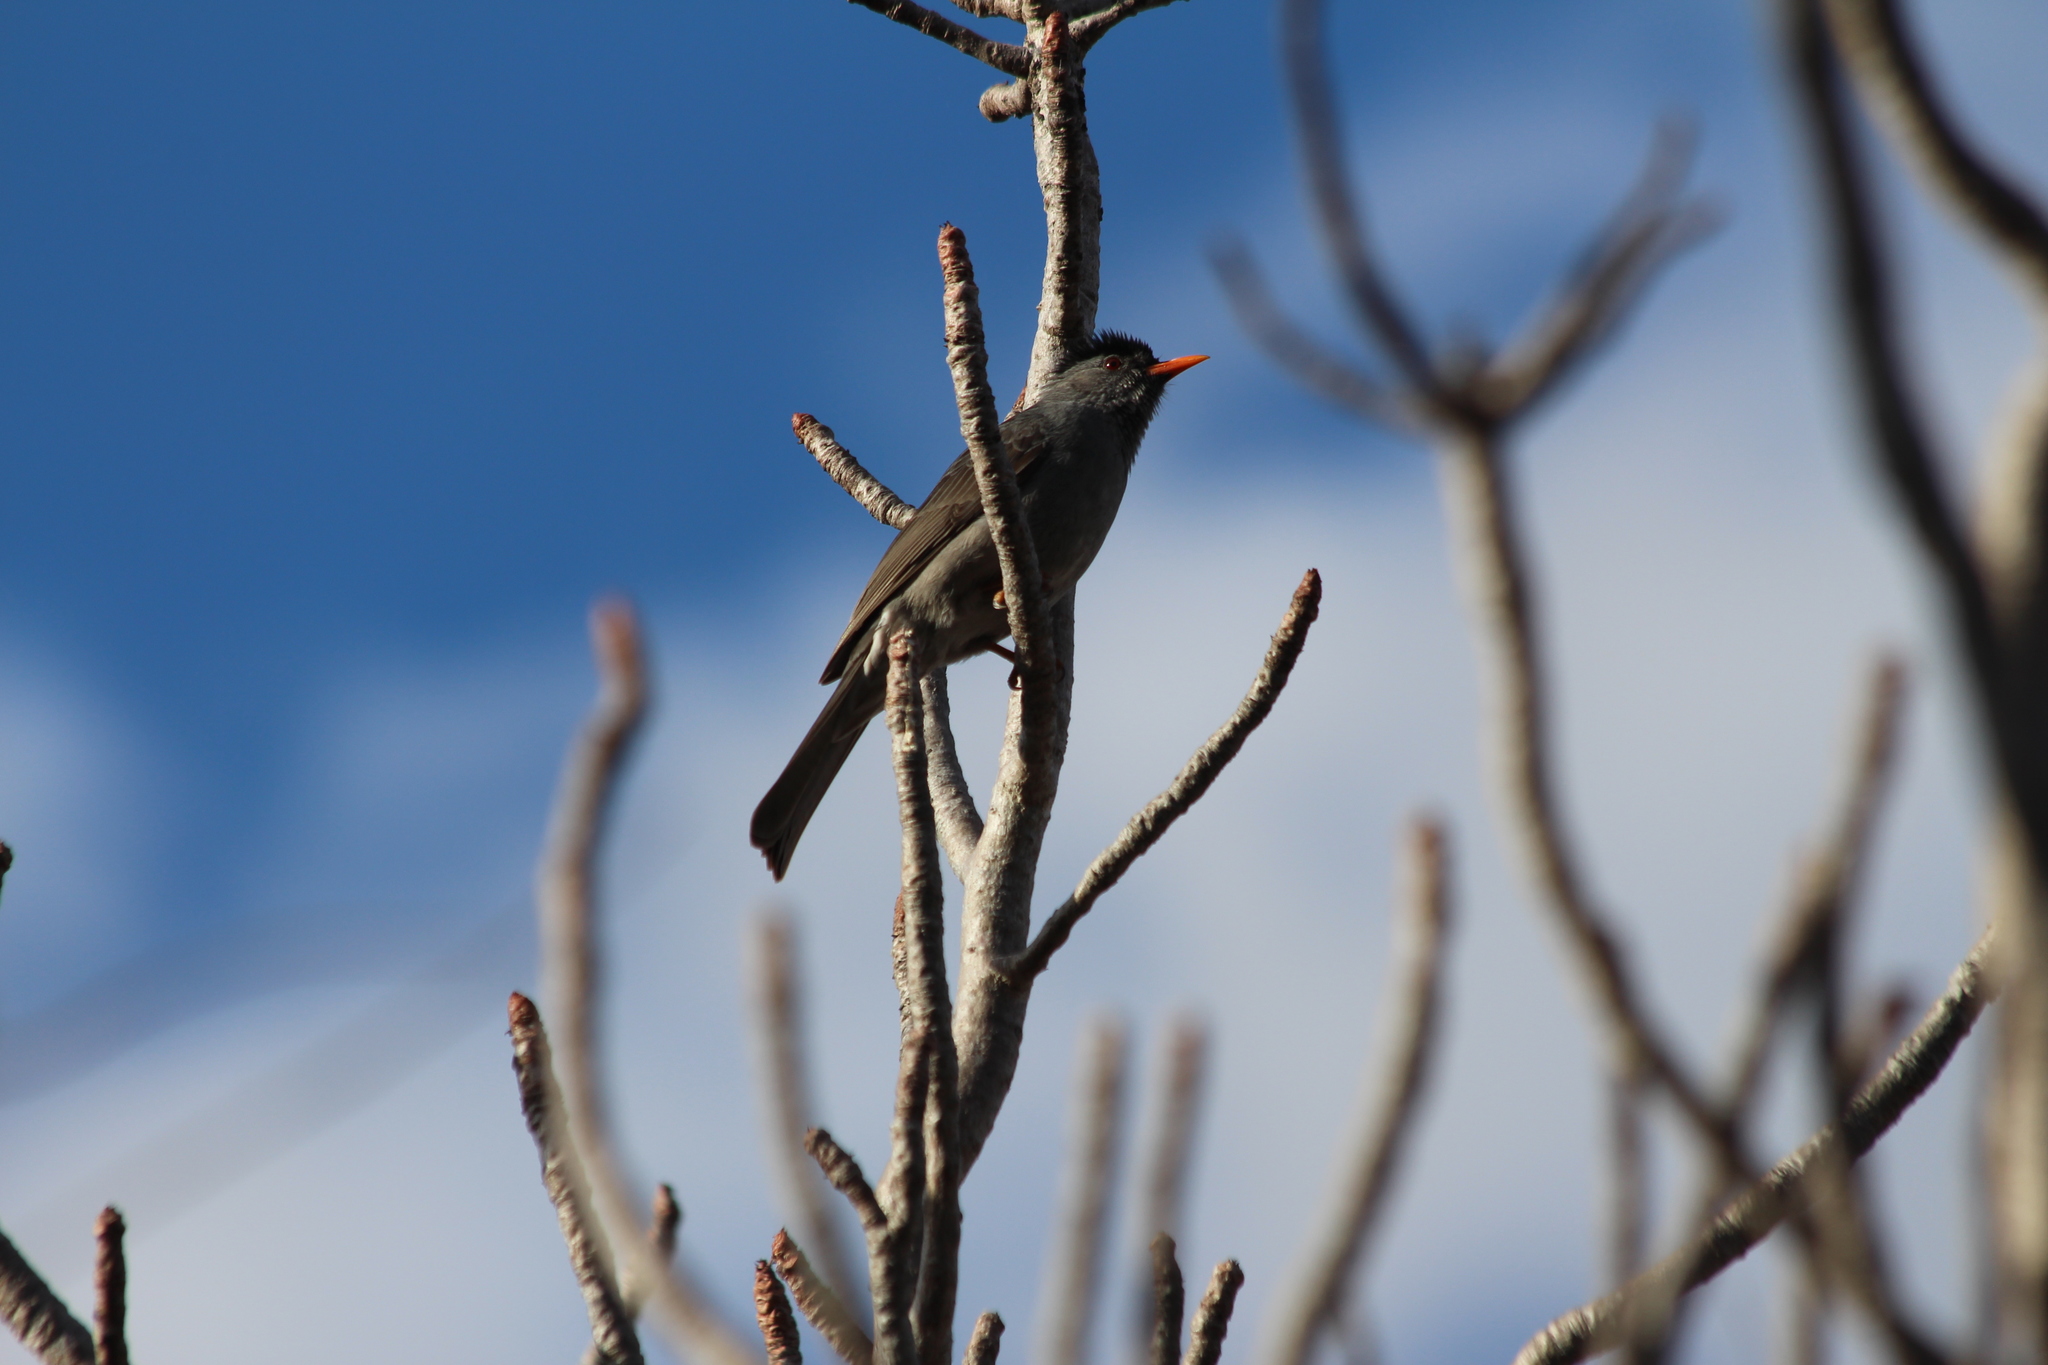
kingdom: Animalia
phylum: Chordata
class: Aves
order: Passeriformes
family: Pycnonotidae
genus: Hypsipetes
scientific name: Hypsipetes madagascariensis
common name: Malagasy bulbul
